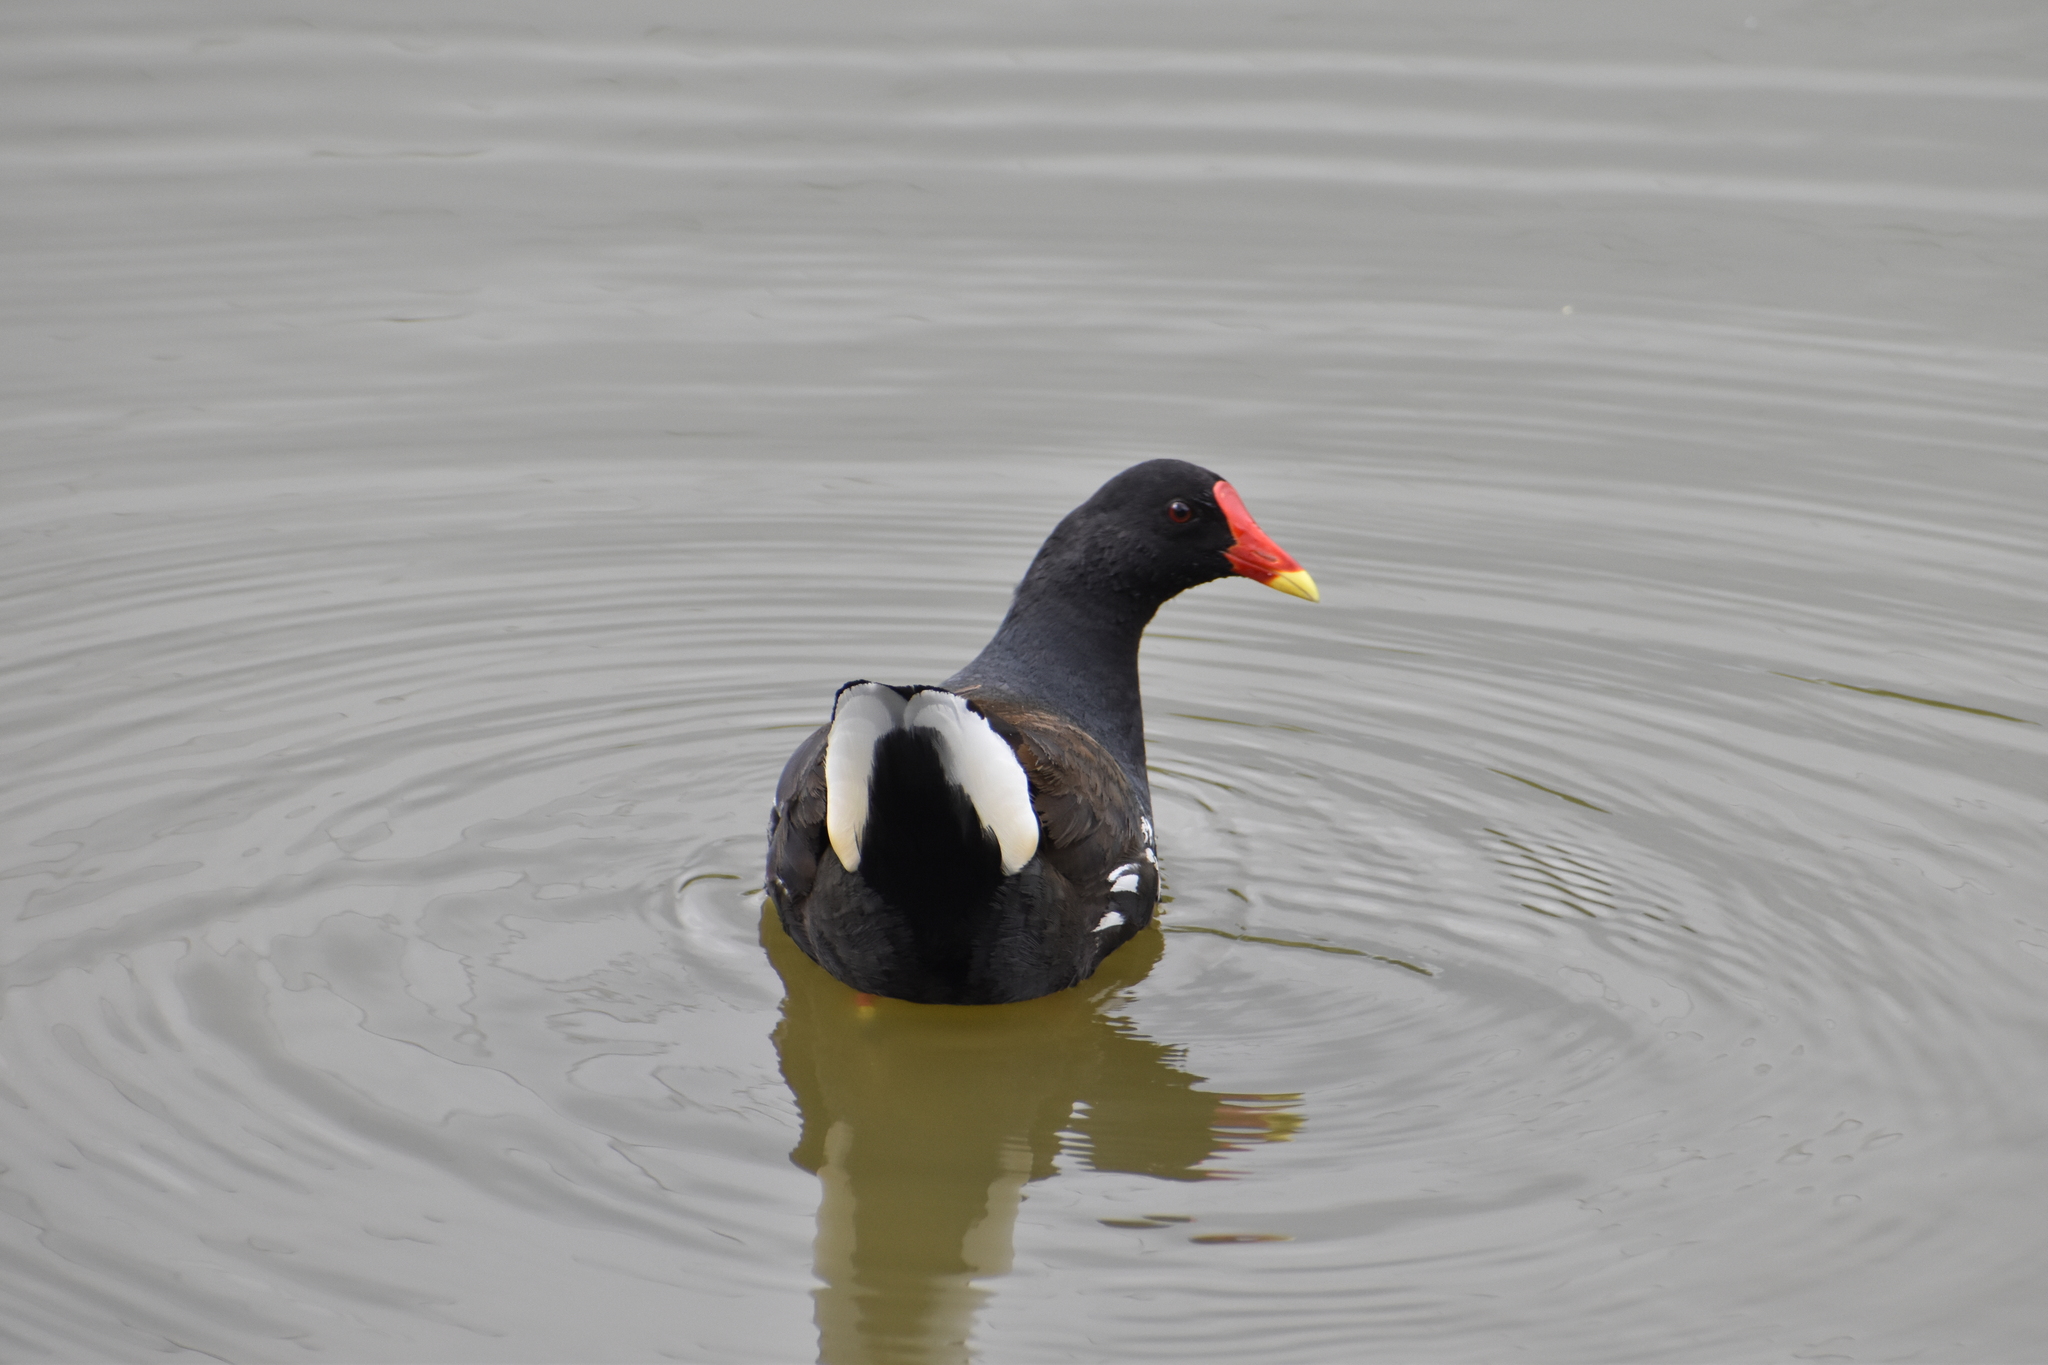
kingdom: Animalia
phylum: Chordata
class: Aves
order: Gruiformes
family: Rallidae
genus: Gallinula
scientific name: Gallinula chloropus
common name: Common moorhen
